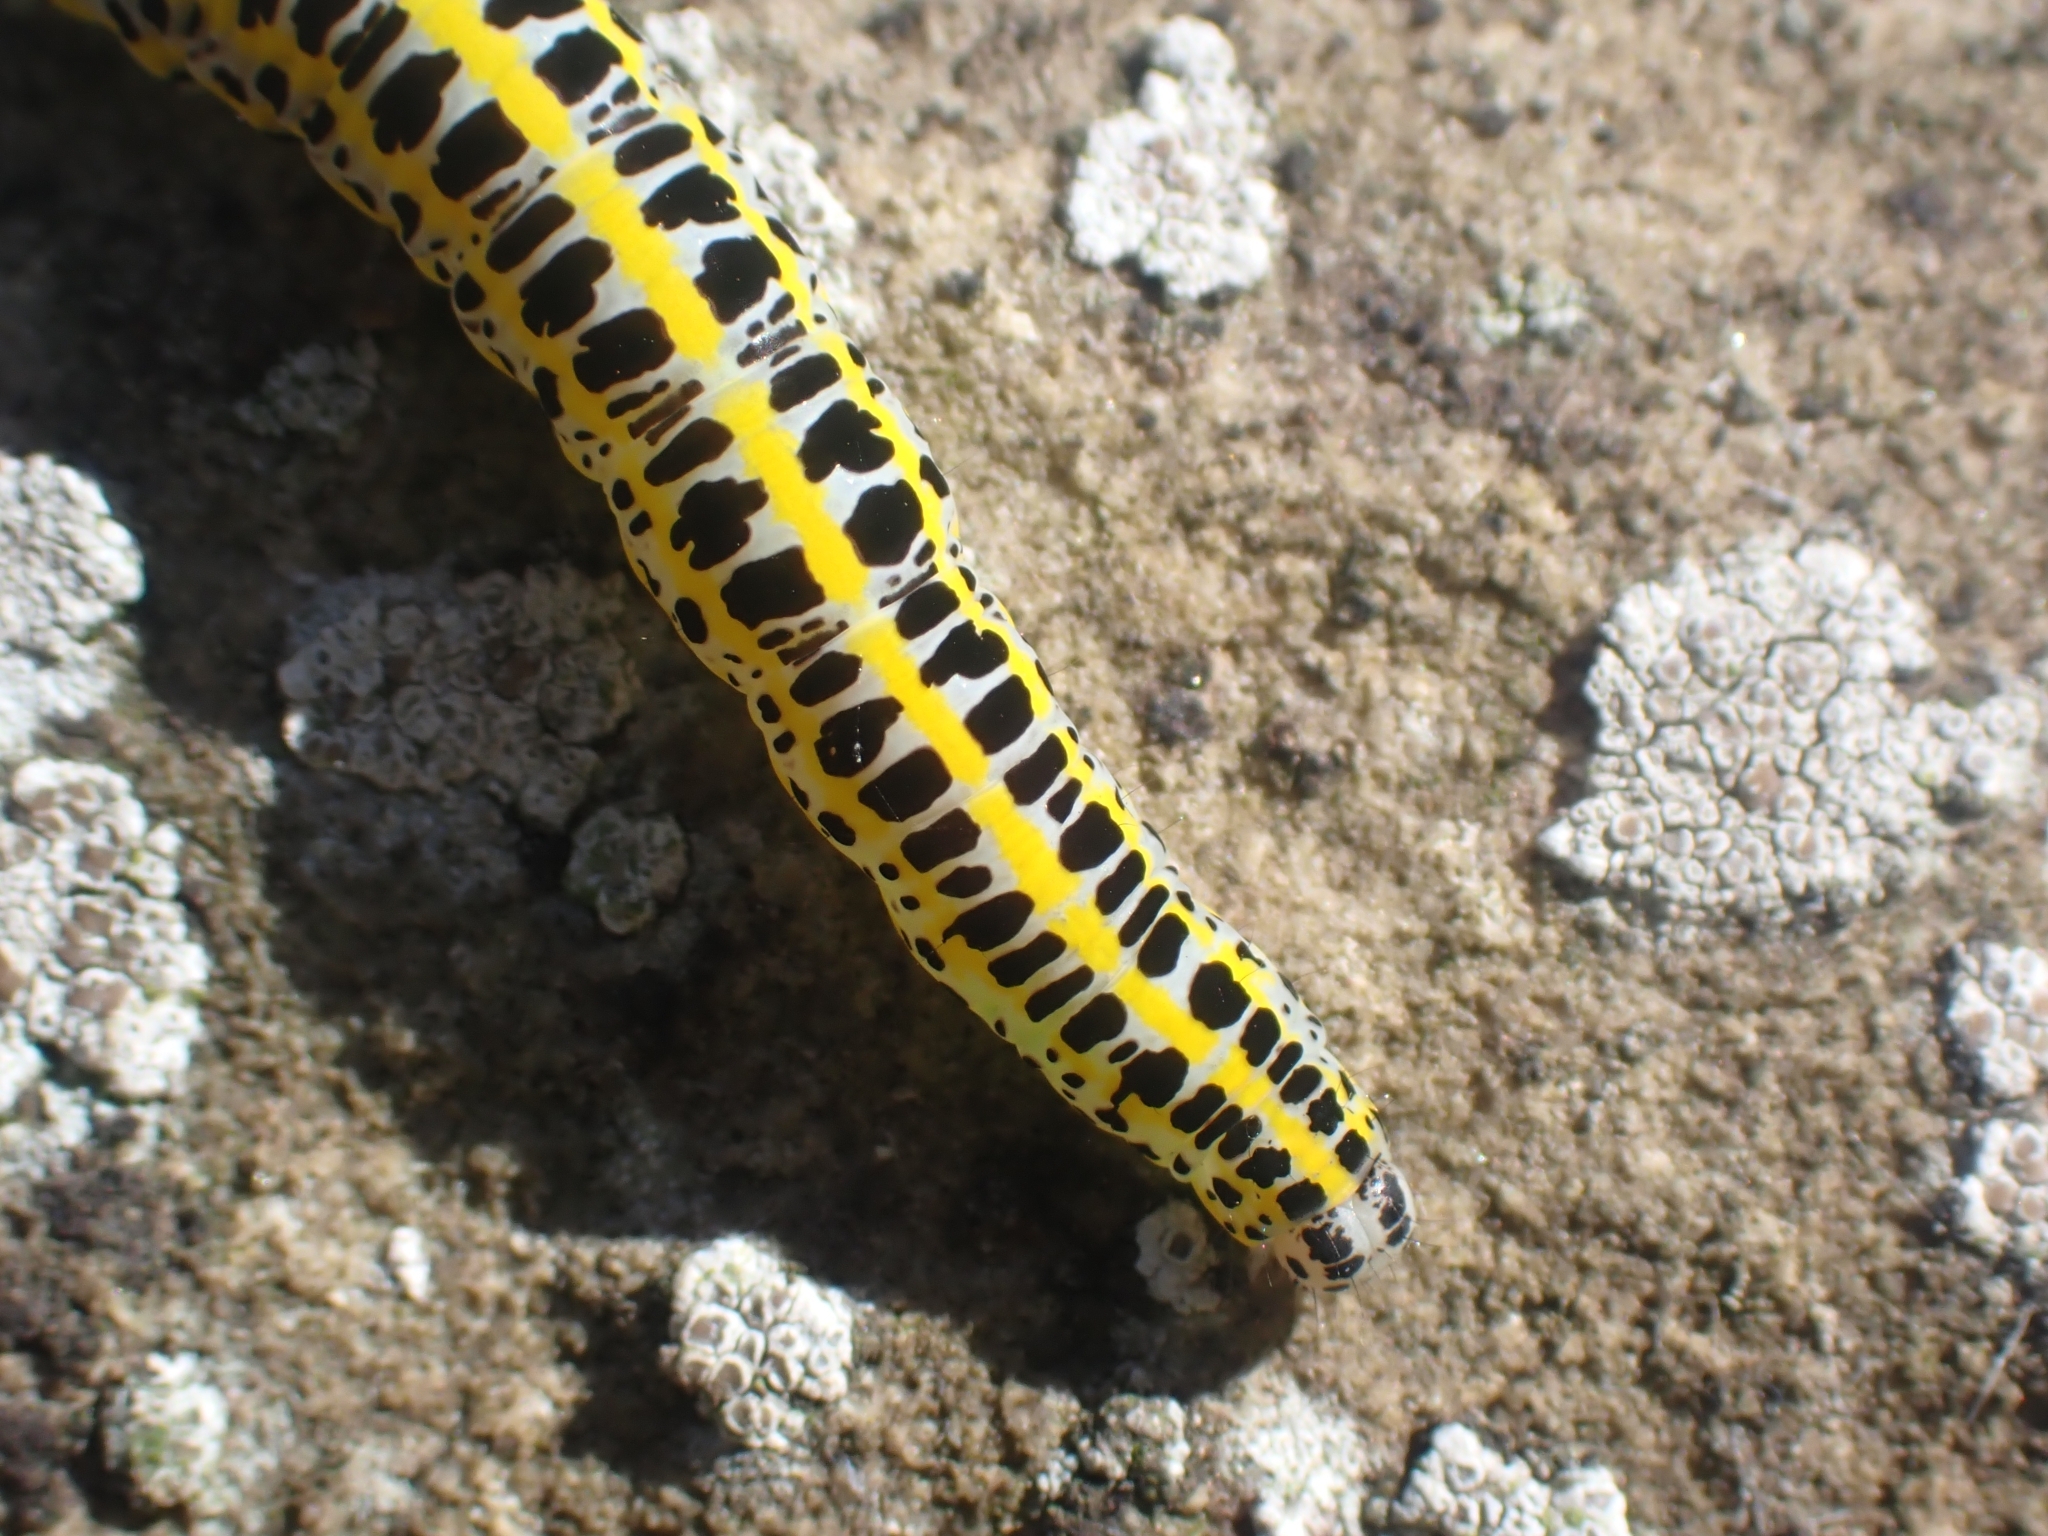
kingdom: Animalia
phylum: Arthropoda
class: Insecta
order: Lepidoptera
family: Noctuidae
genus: Calophasia
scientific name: Calophasia lunula
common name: Toadflax brocade
